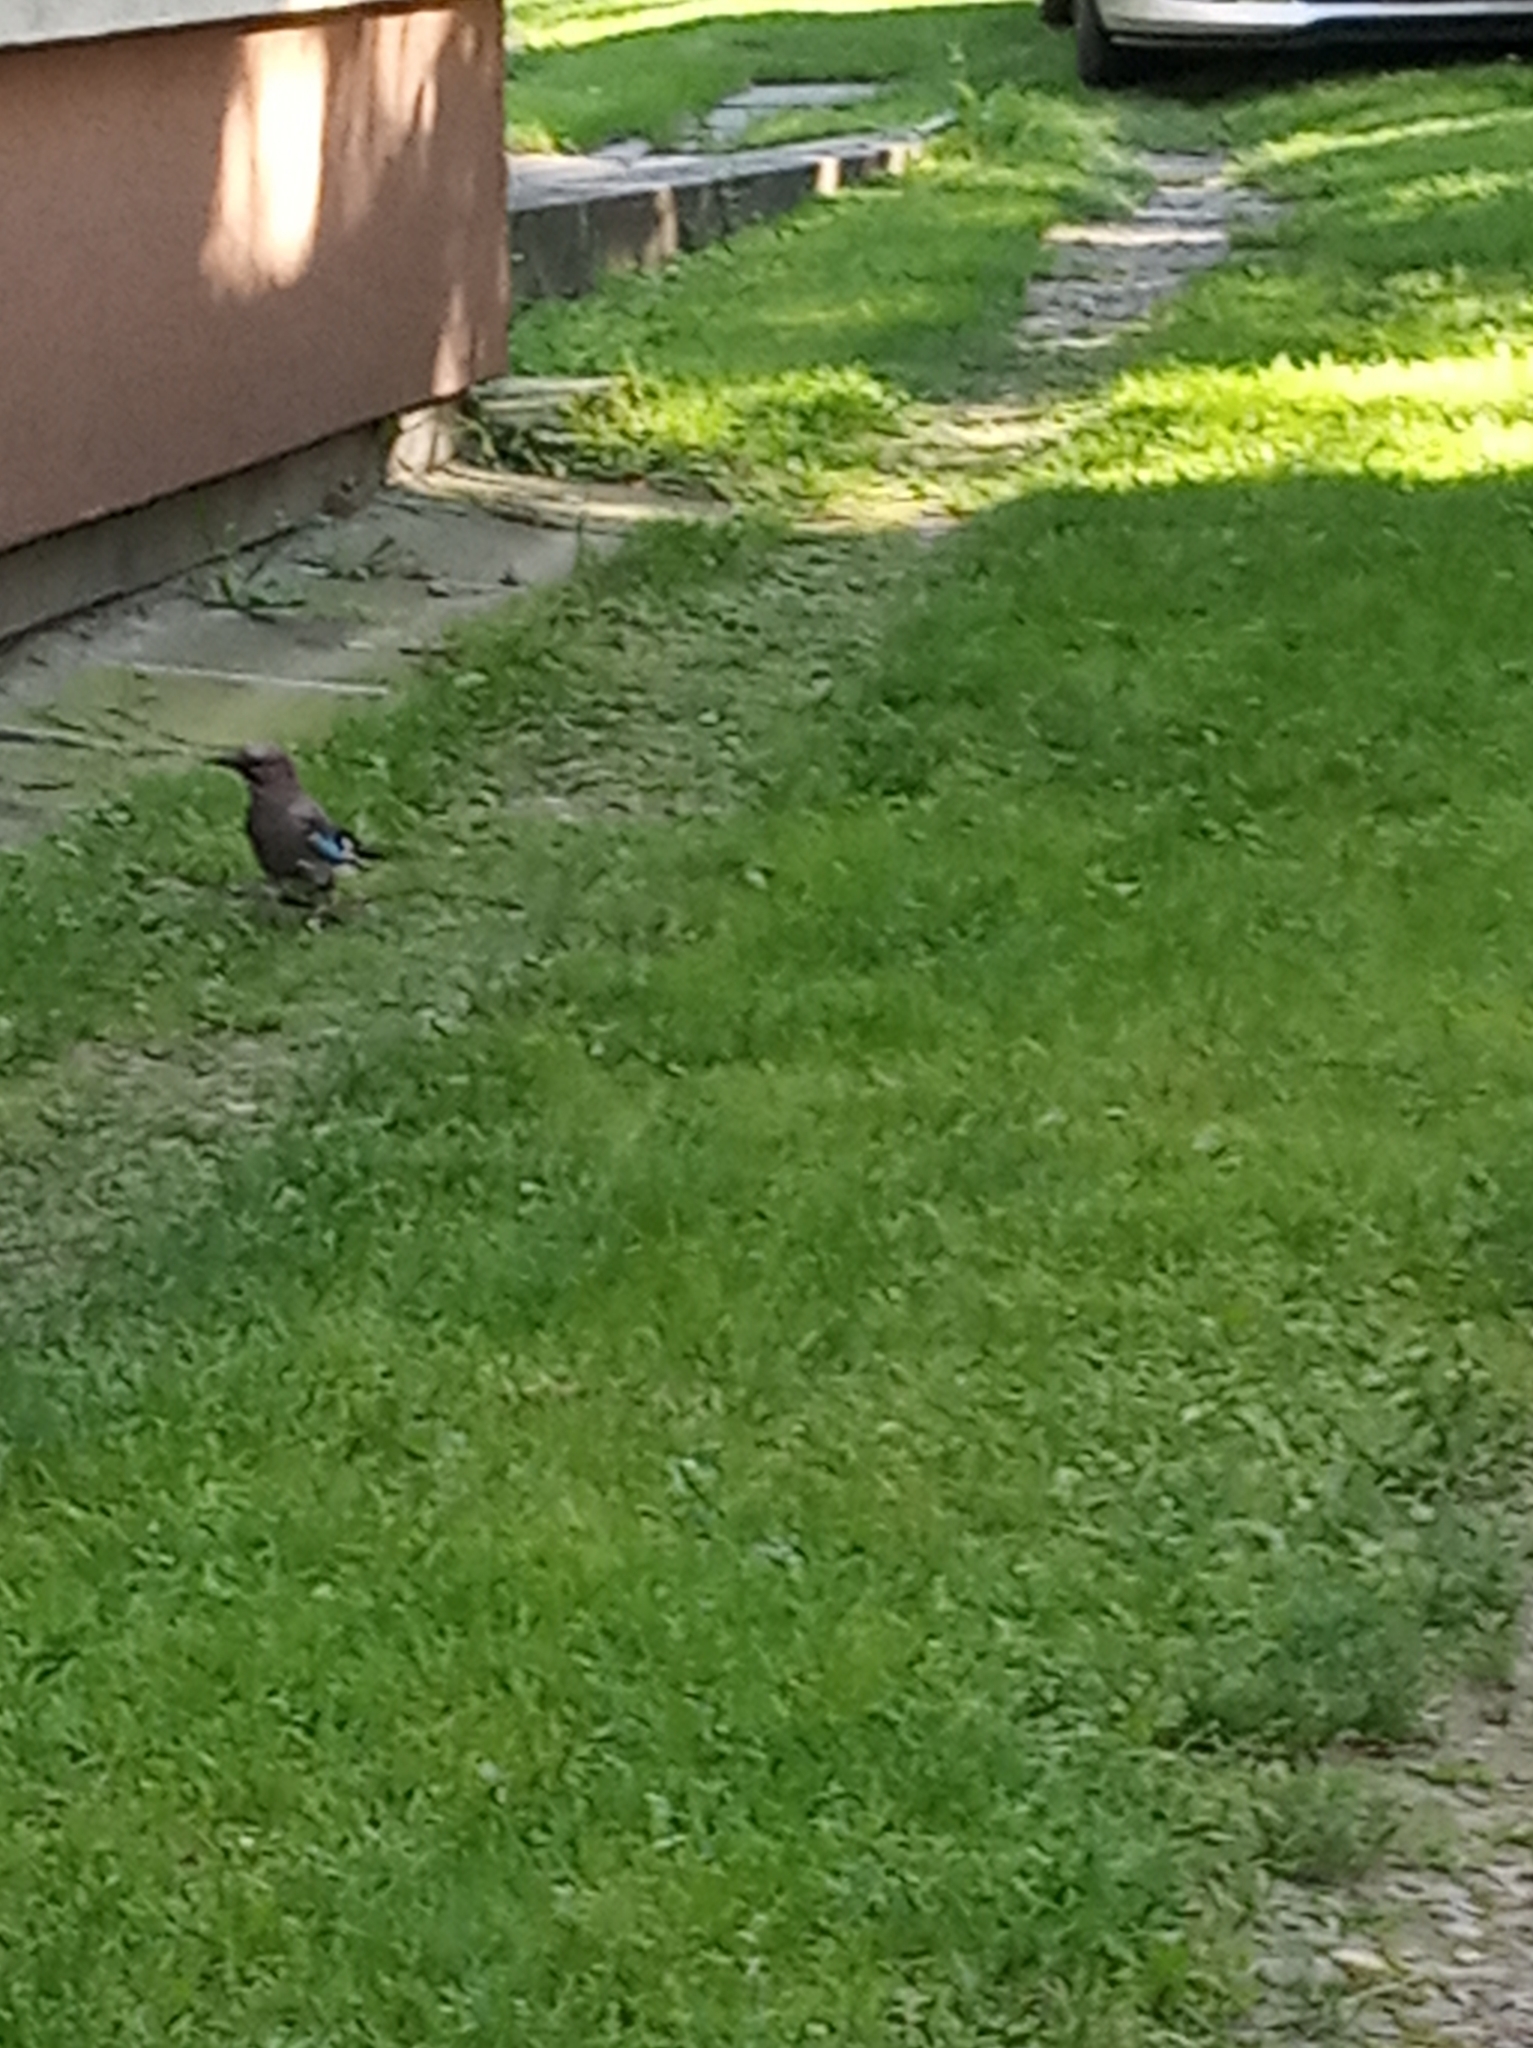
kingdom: Animalia
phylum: Chordata
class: Aves
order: Passeriformes
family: Corvidae
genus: Garrulus
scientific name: Garrulus glandarius
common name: Eurasian jay
